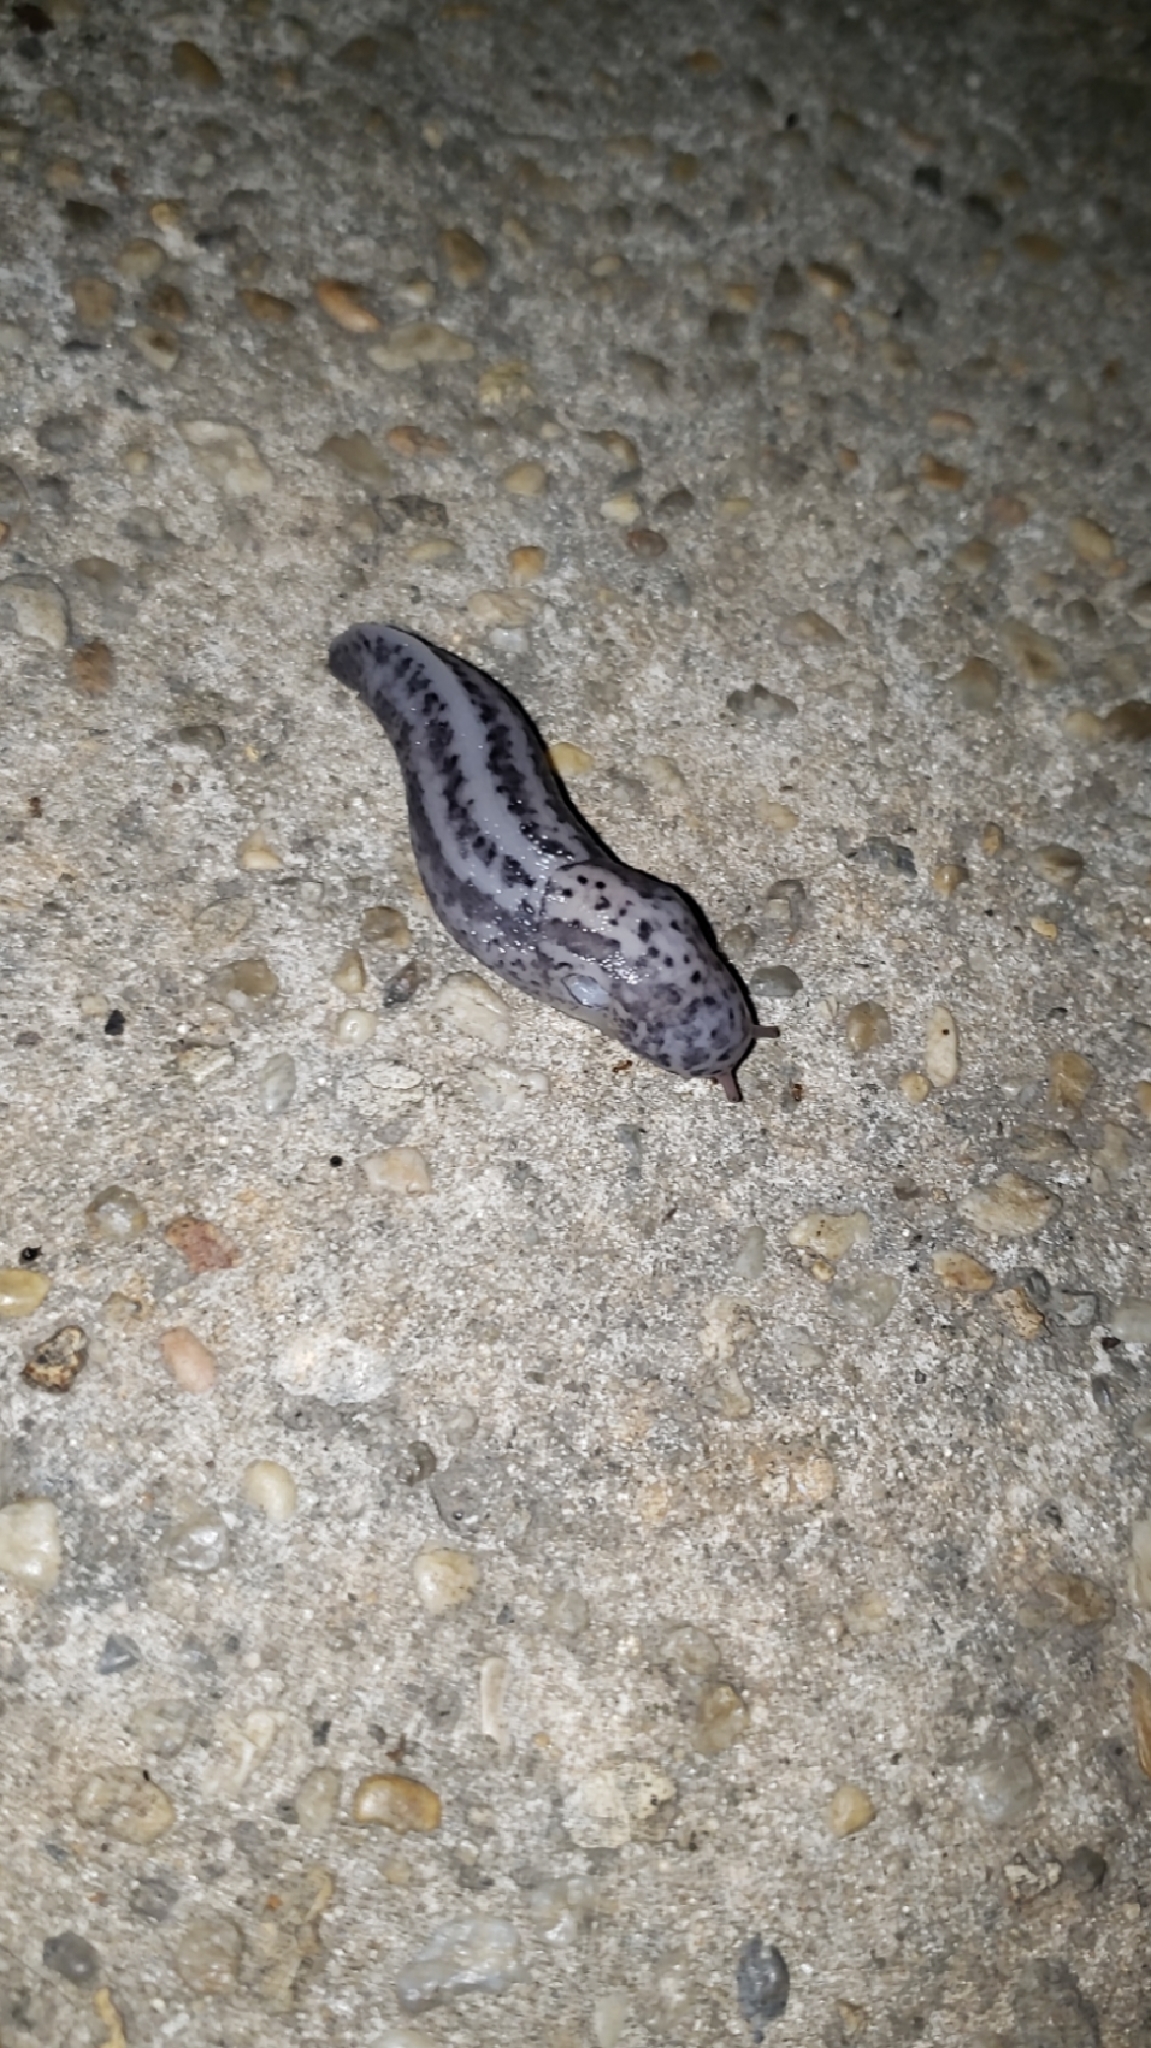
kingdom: Animalia
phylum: Mollusca
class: Gastropoda
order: Stylommatophora
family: Limacidae
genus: Limax
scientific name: Limax maximus
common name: Great grey slug
